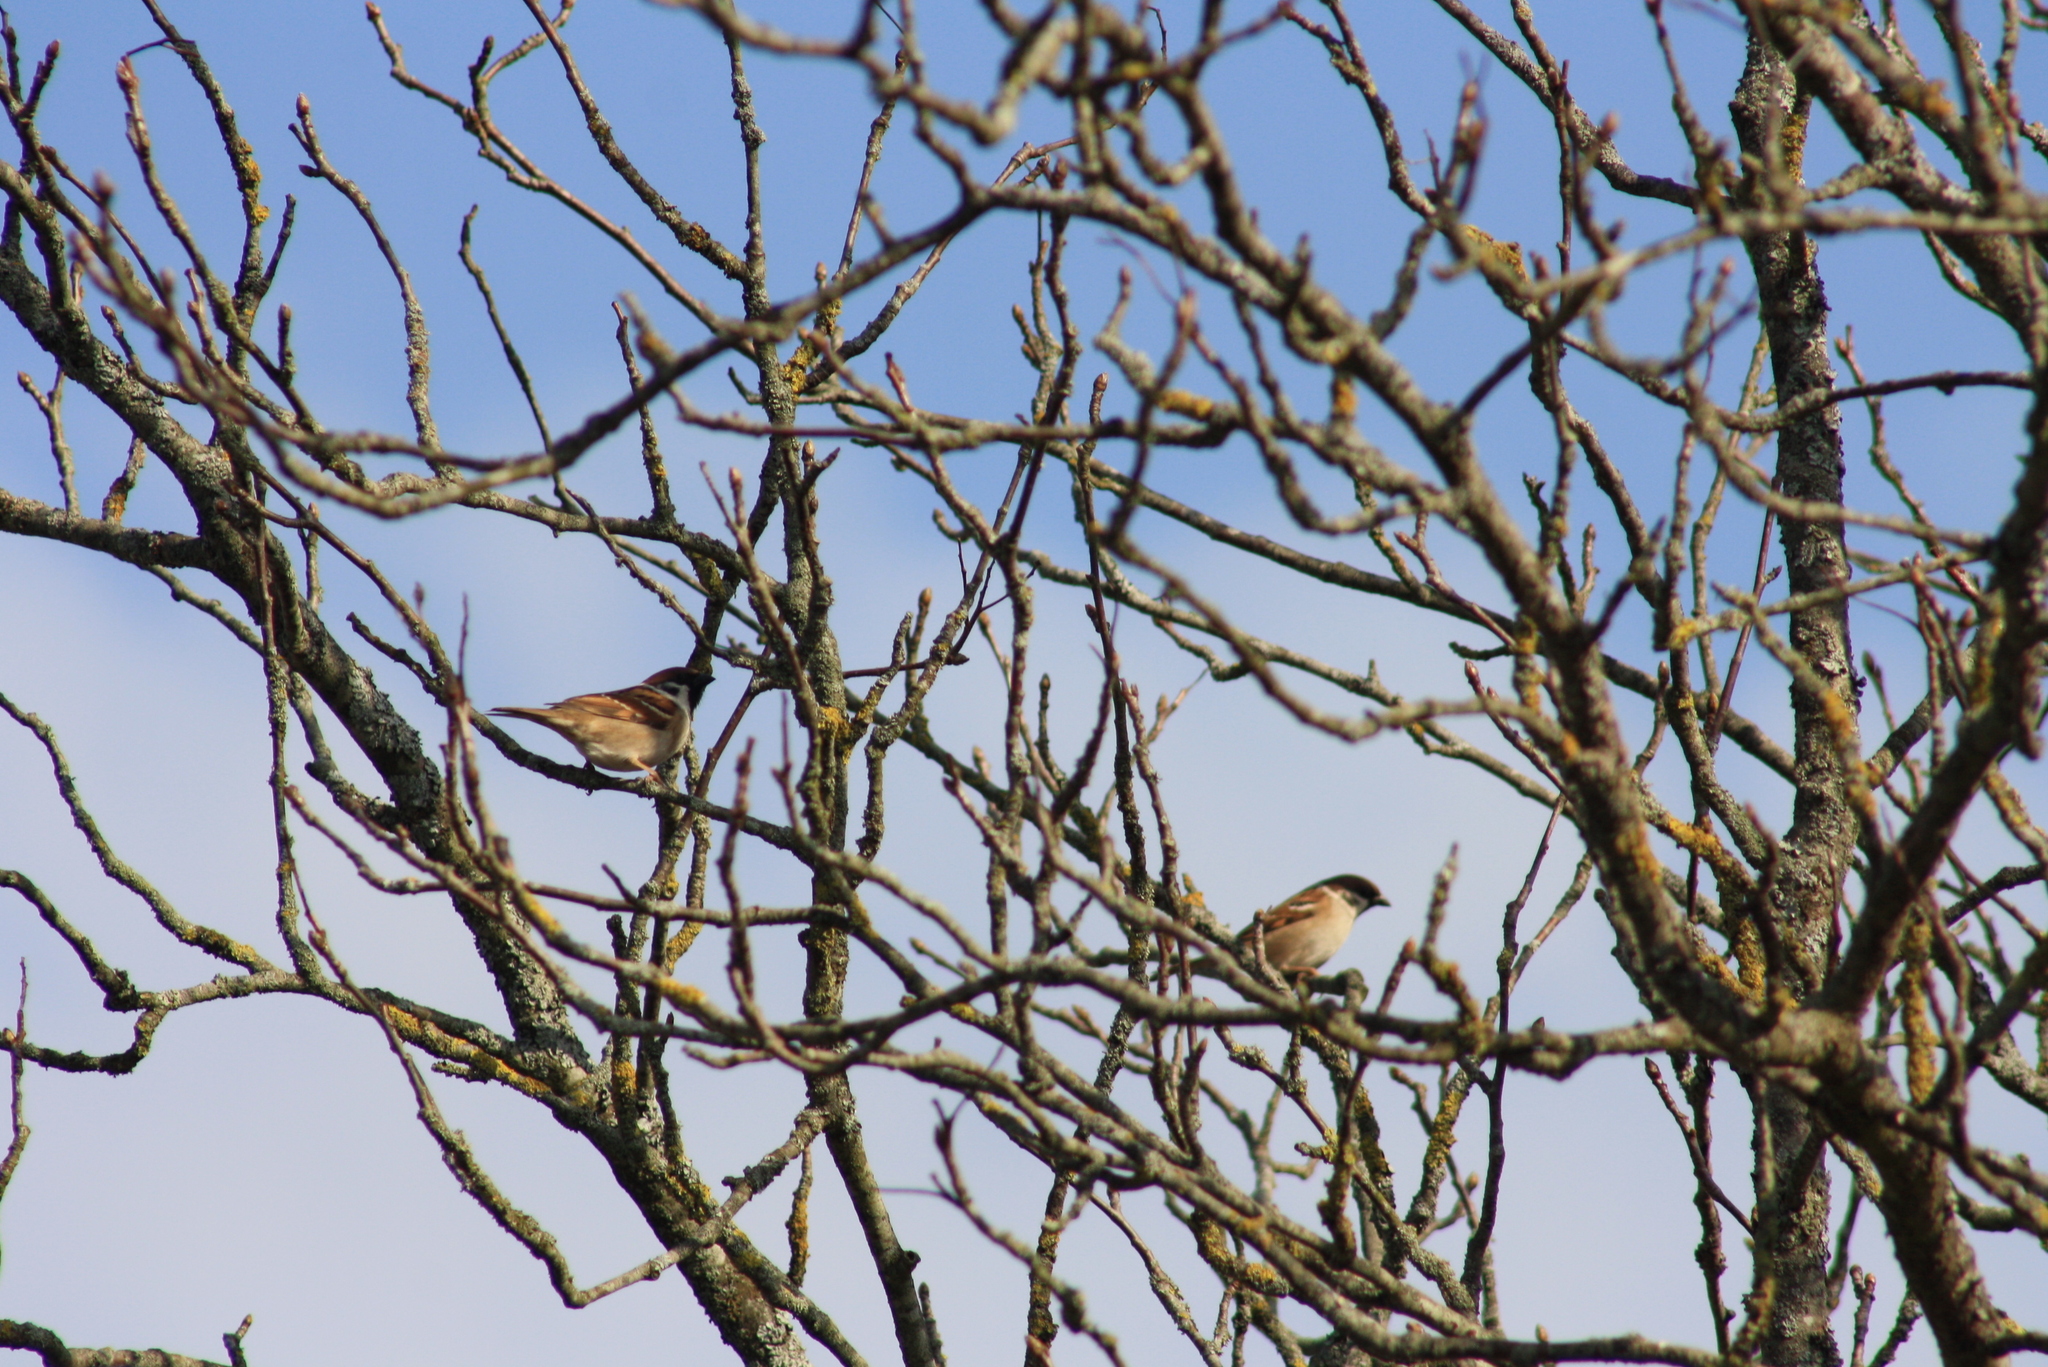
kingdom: Animalia
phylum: Chordata
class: Aves
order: Passeriformes
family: Passeridae
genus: Passer
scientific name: Passer montanus
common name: Eurasian tree sparrow
